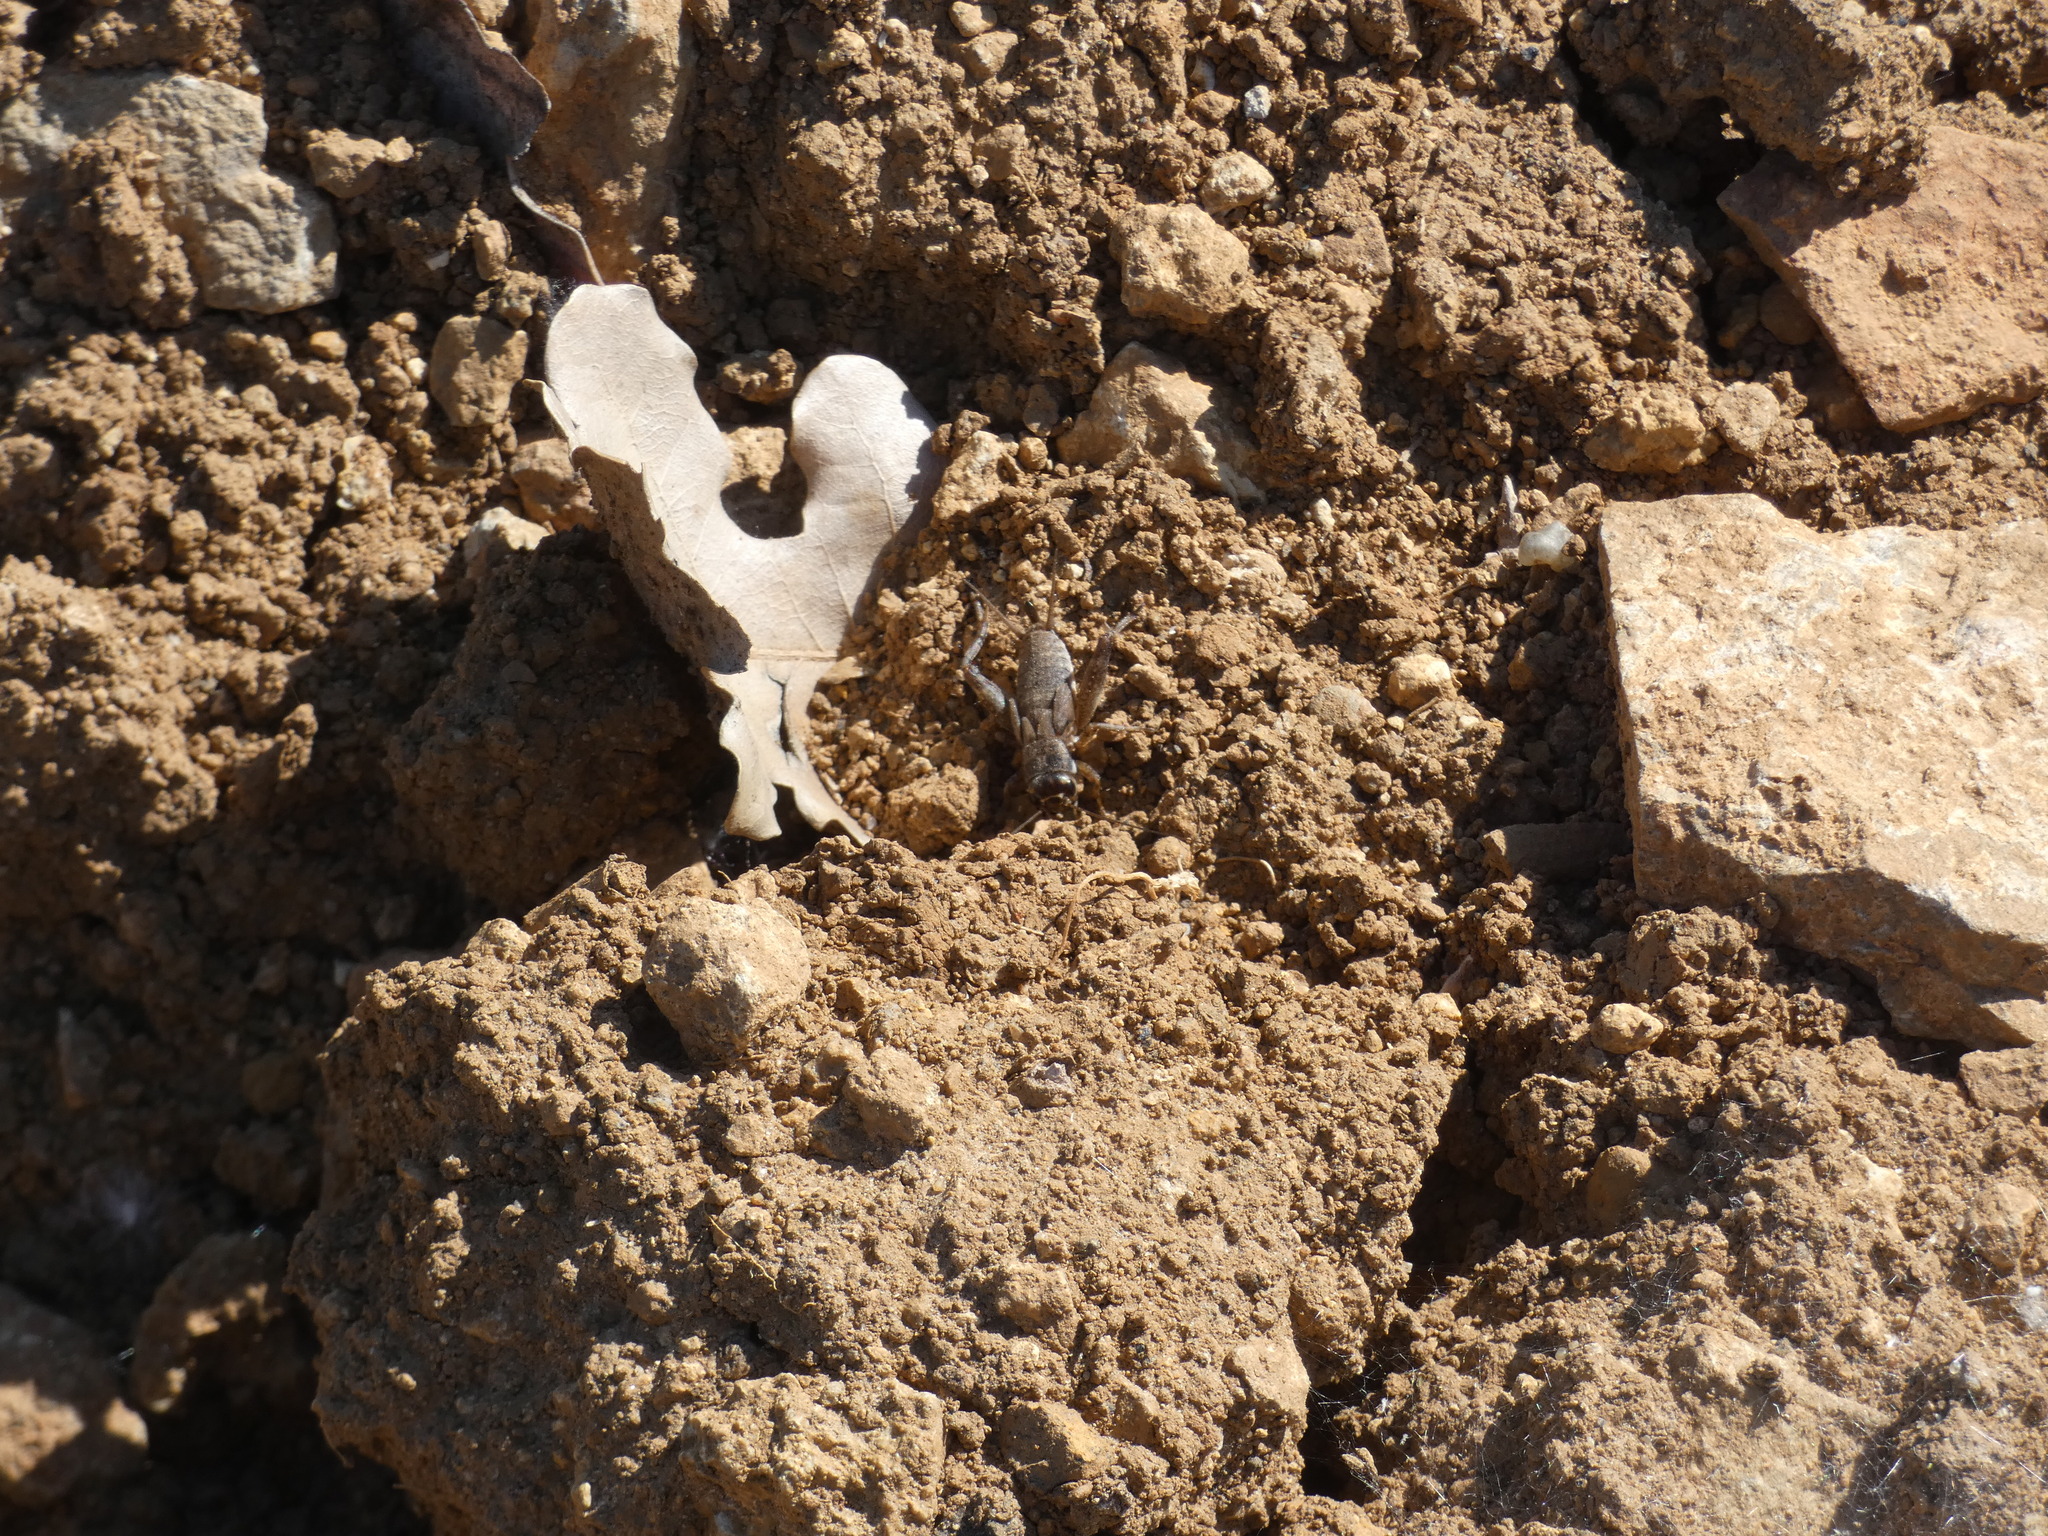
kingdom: Animalia
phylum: Arthropoda
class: Insecta
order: Orthoptera
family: Gryllidae
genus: Eumodicogryllus
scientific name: Eumodicogryllus bordigalensis
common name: Bordeaux cricket
